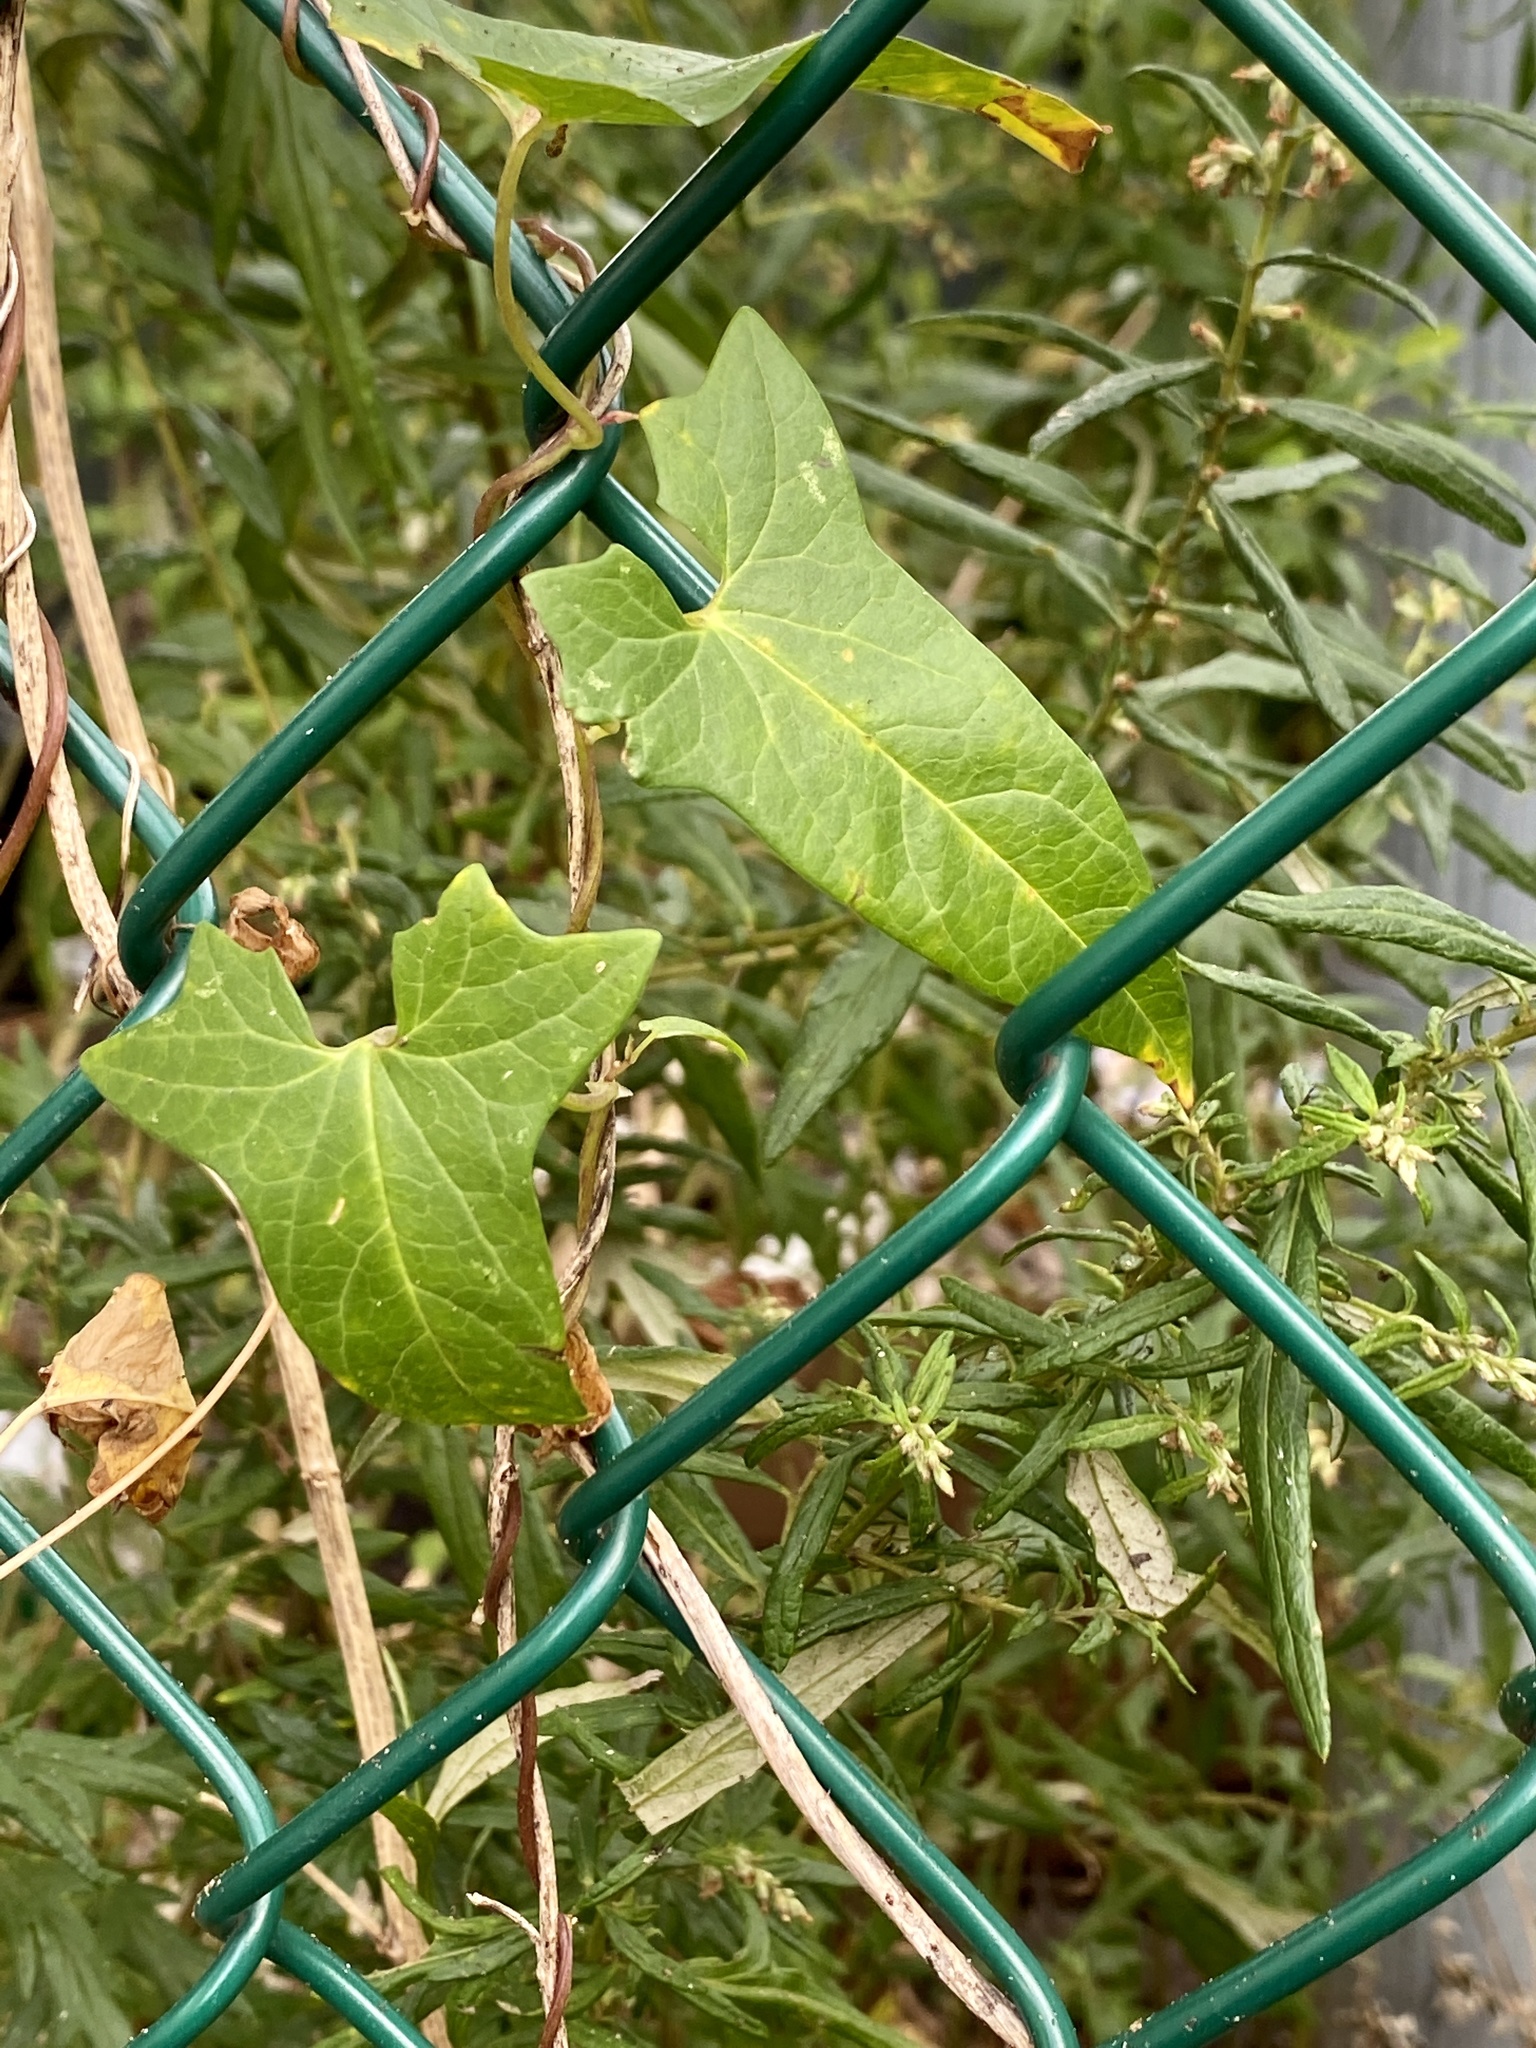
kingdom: Plantae
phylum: Tracheophyta
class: Magnoliopsida
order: Solanales
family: Convolvulaceae
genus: Calystegia
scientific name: Calystegia sepium
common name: Hedge bindweed
